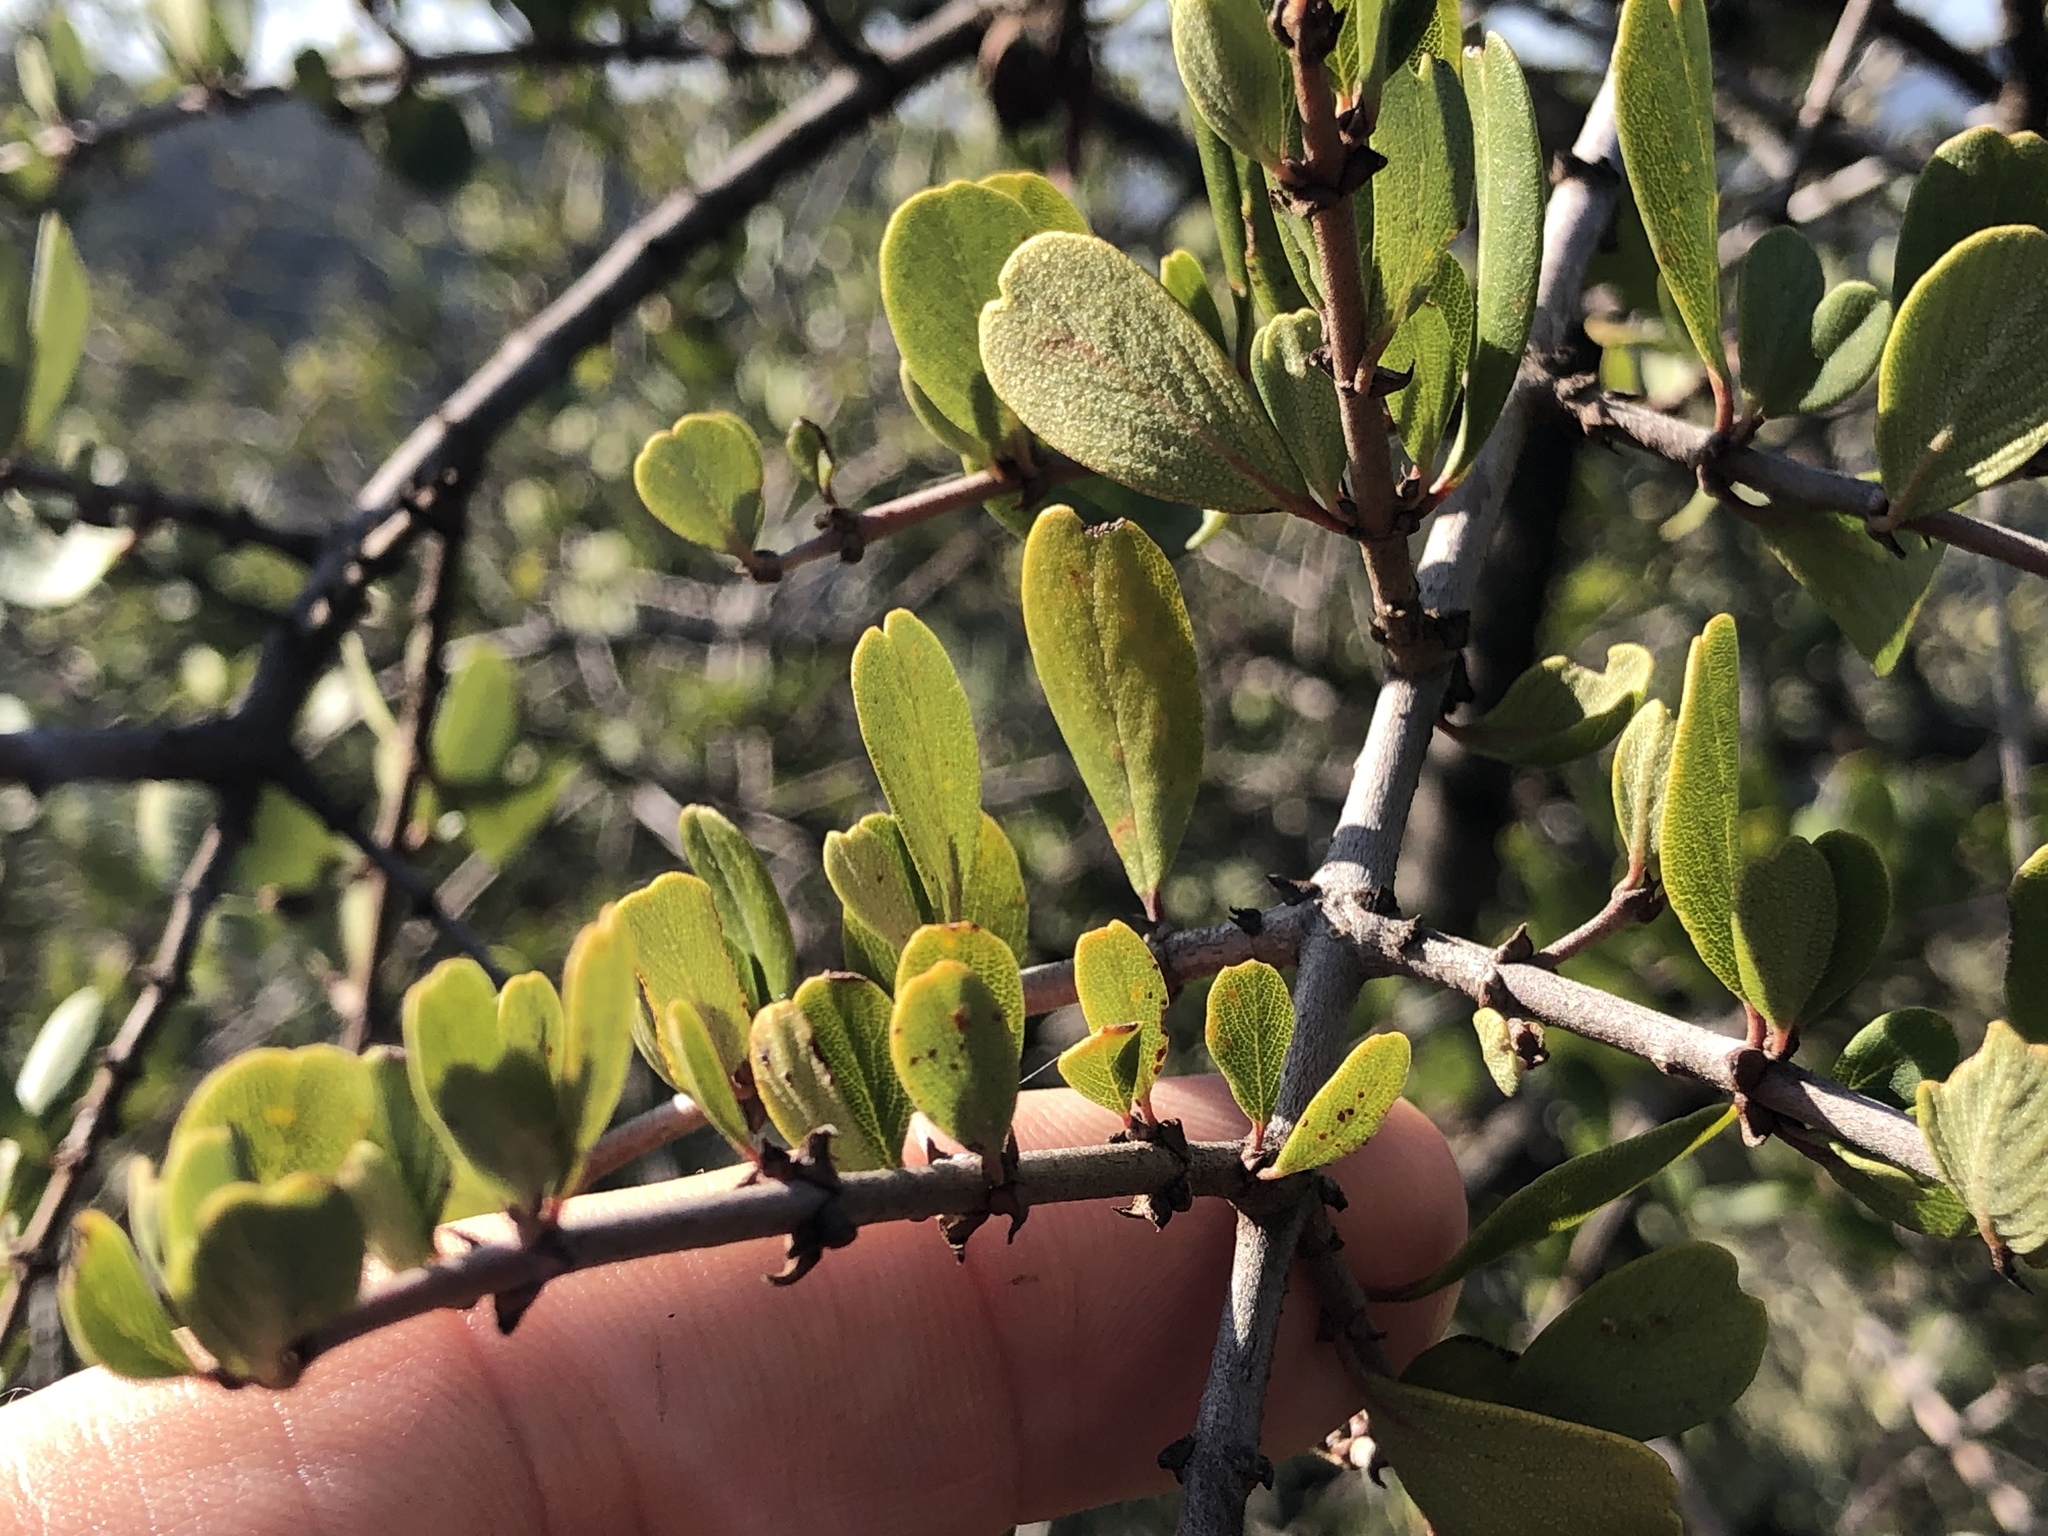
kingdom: Plantae
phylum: Tracheophyta
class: Magnoliopsida
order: Rosales
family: Rhamnaceae
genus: Ceanothus
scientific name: Ceanothus cuneatus
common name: Cuneate ceanothus
